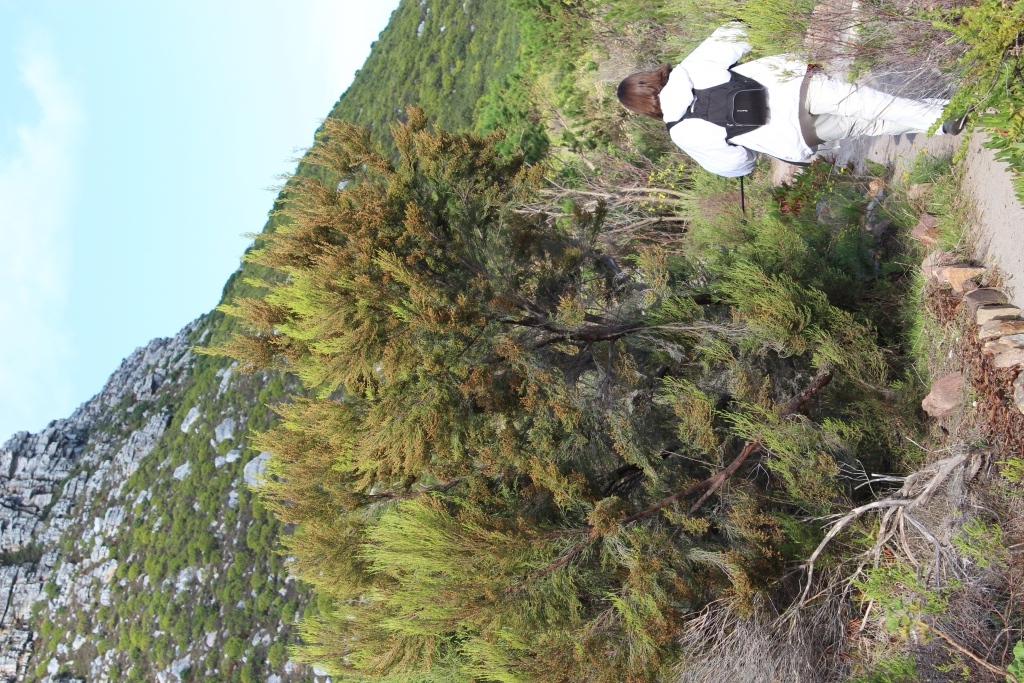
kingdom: Plantae
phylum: Tracheophyta
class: Magnoliopsida
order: Ericales
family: Ericaceae
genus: Erica
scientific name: Erica tristis
